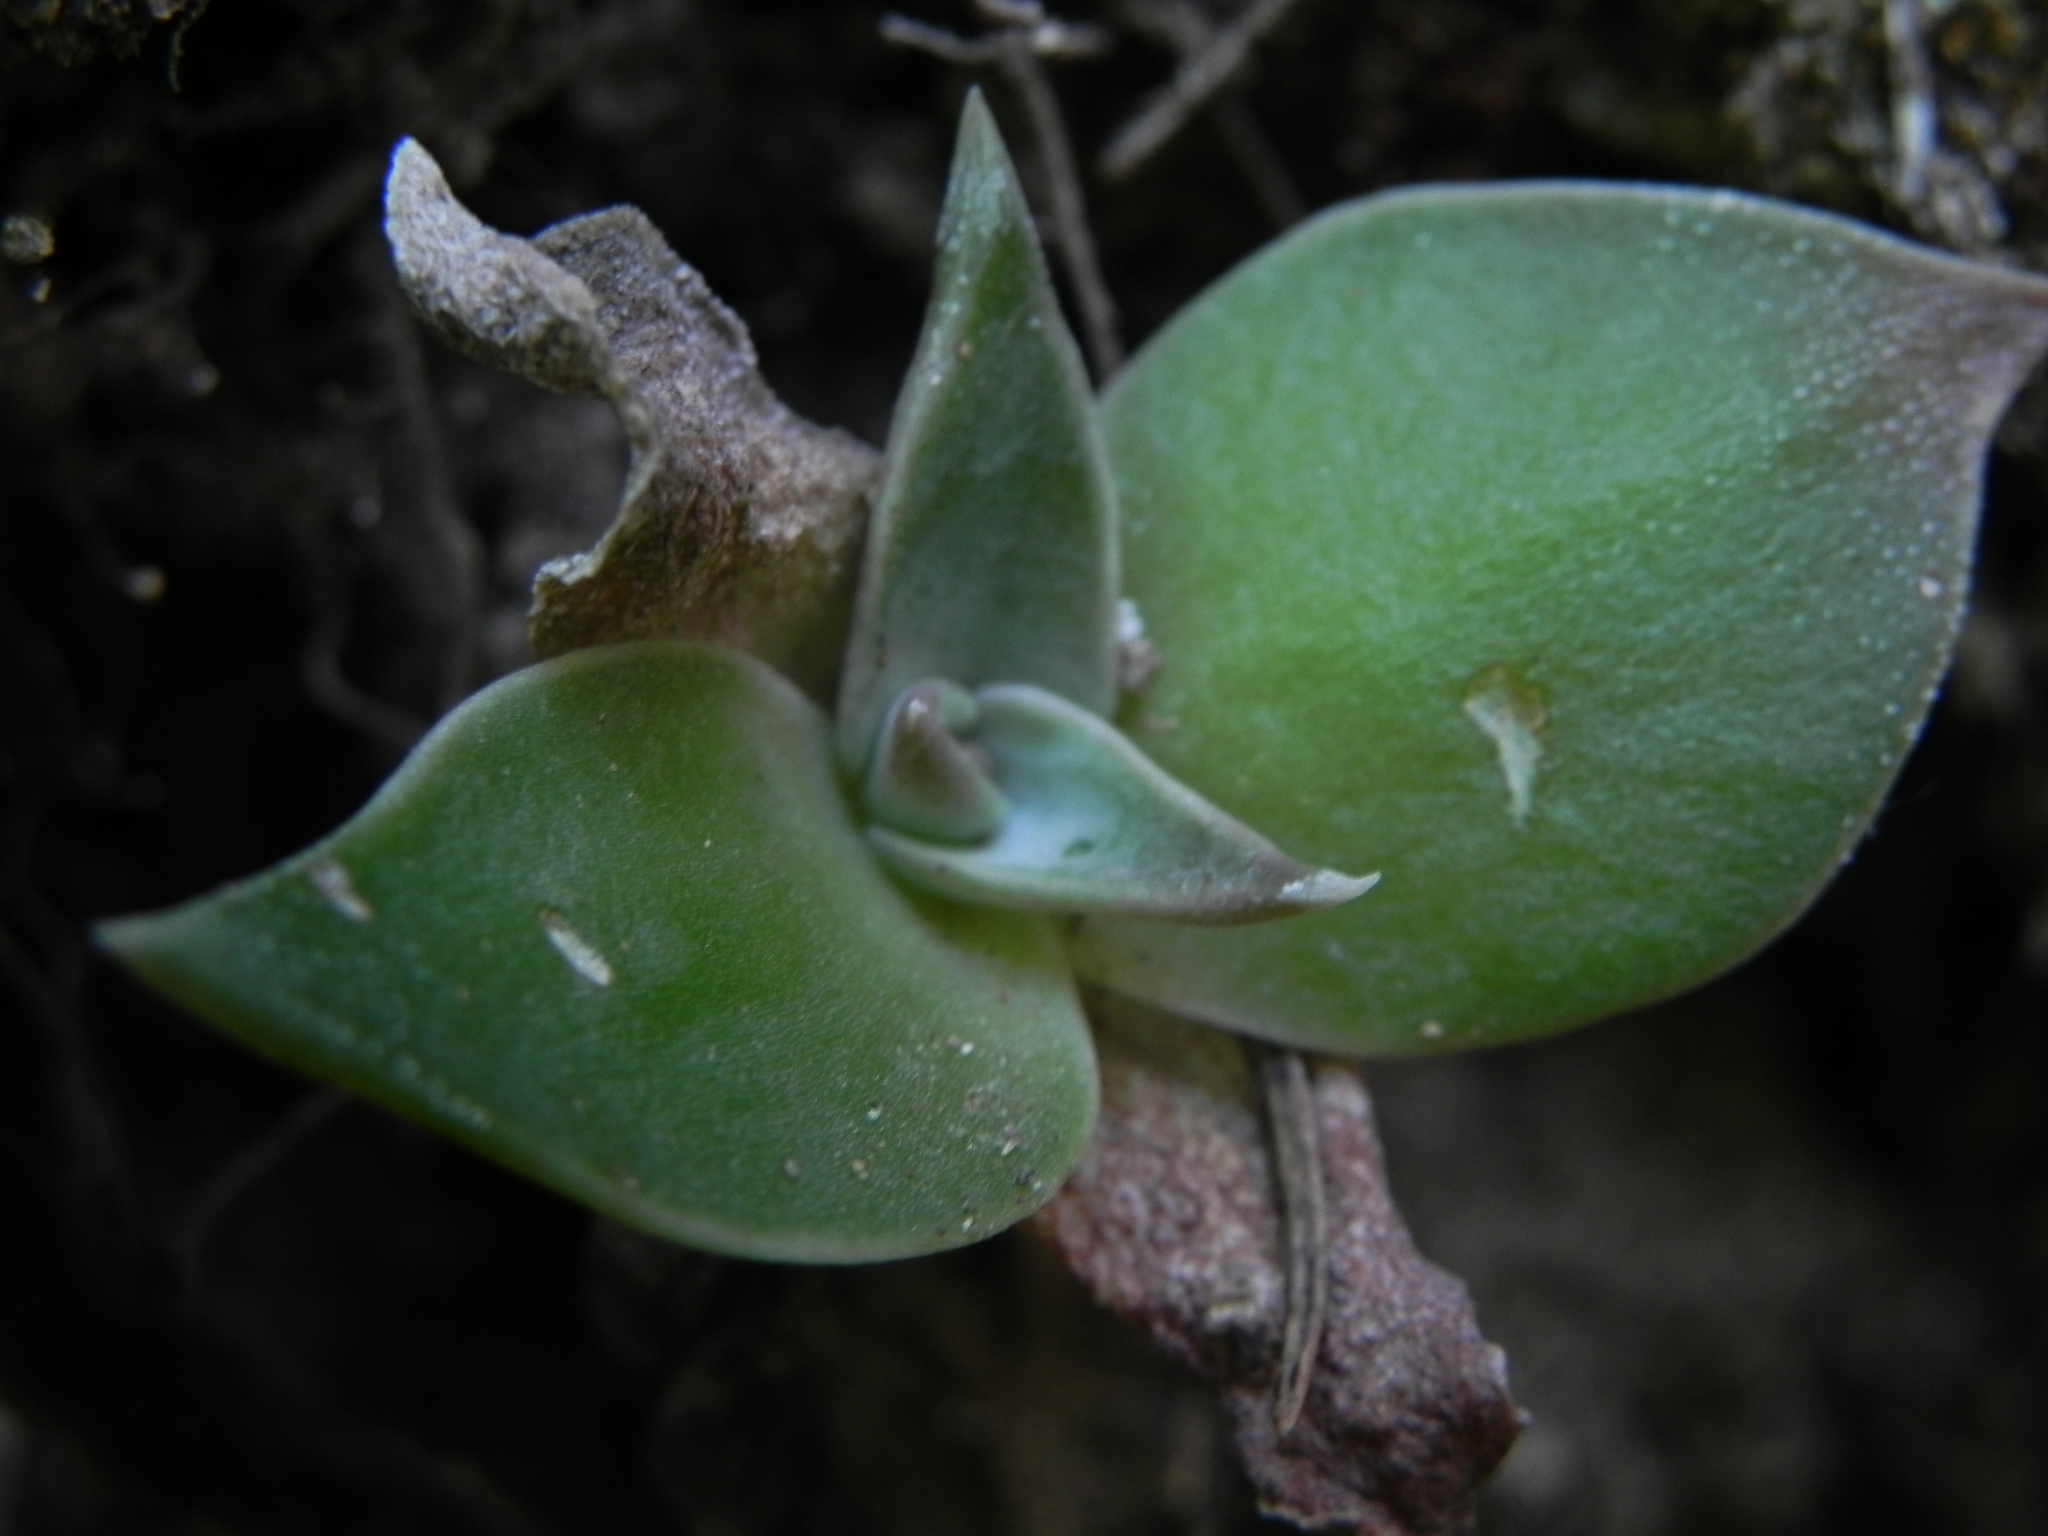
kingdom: Plantae
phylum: Tracheophyta
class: Magnoliopsida
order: Saxifragales
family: Crassulaceae
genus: Dudleya
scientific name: Dudleya cymosa
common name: Canyon dudleya
